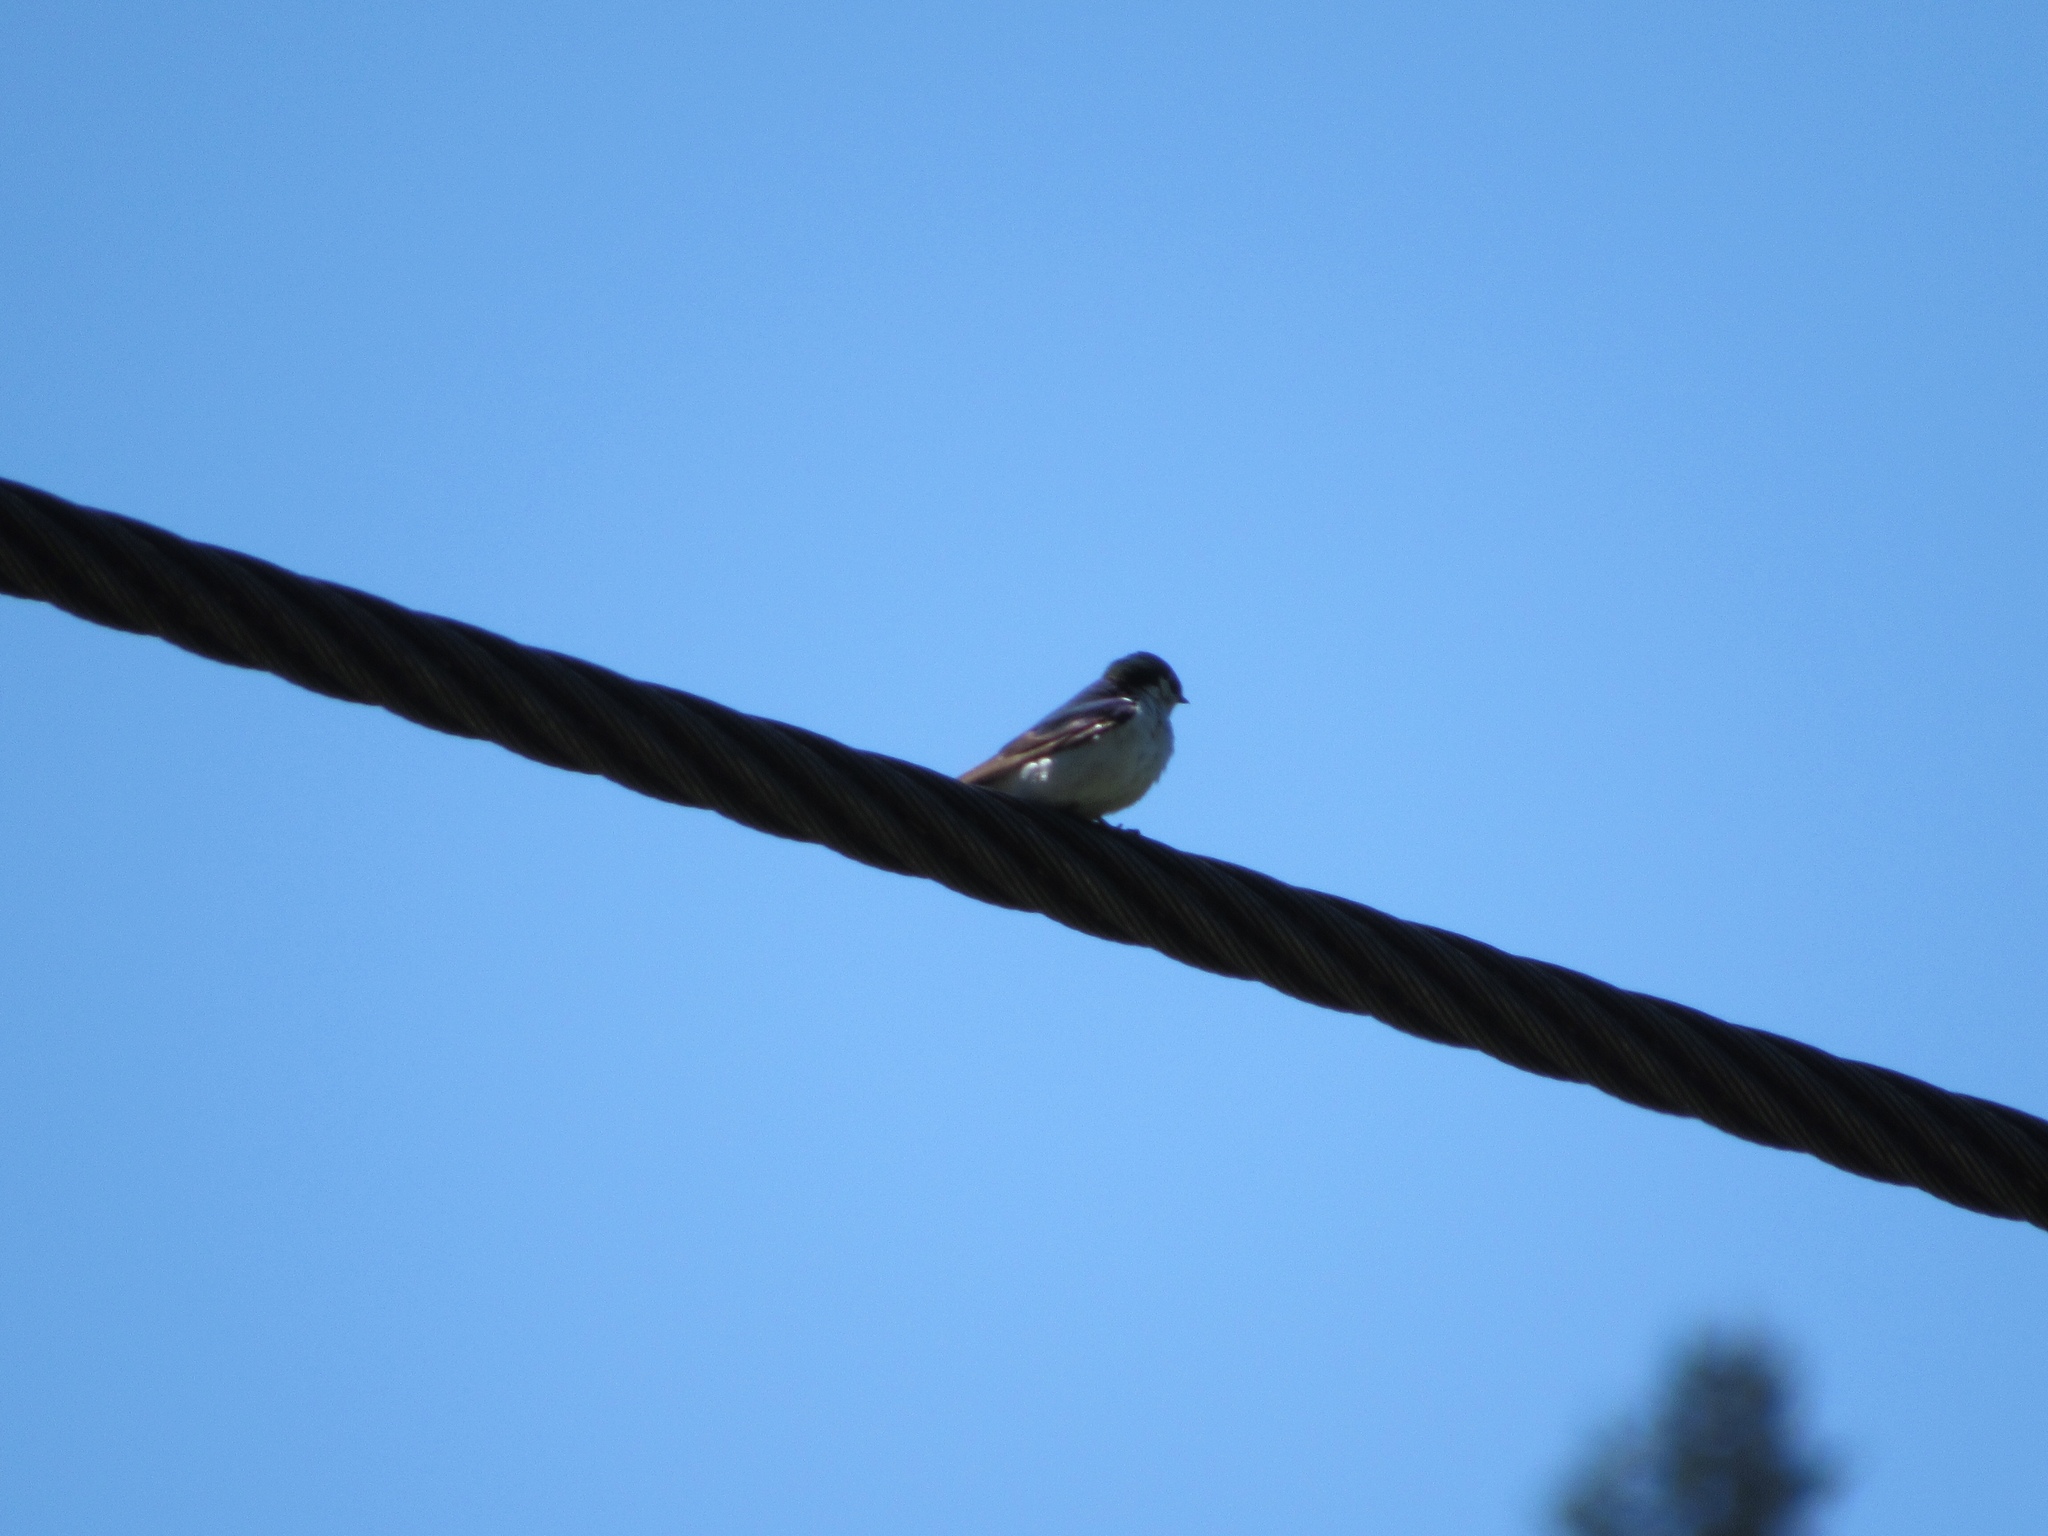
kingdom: Animalia
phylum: Chordata
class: Aves
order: Passeriformes
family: Hirundinidae
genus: Tachycineta
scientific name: Tachycineta thalassina
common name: Violet-green swallow
